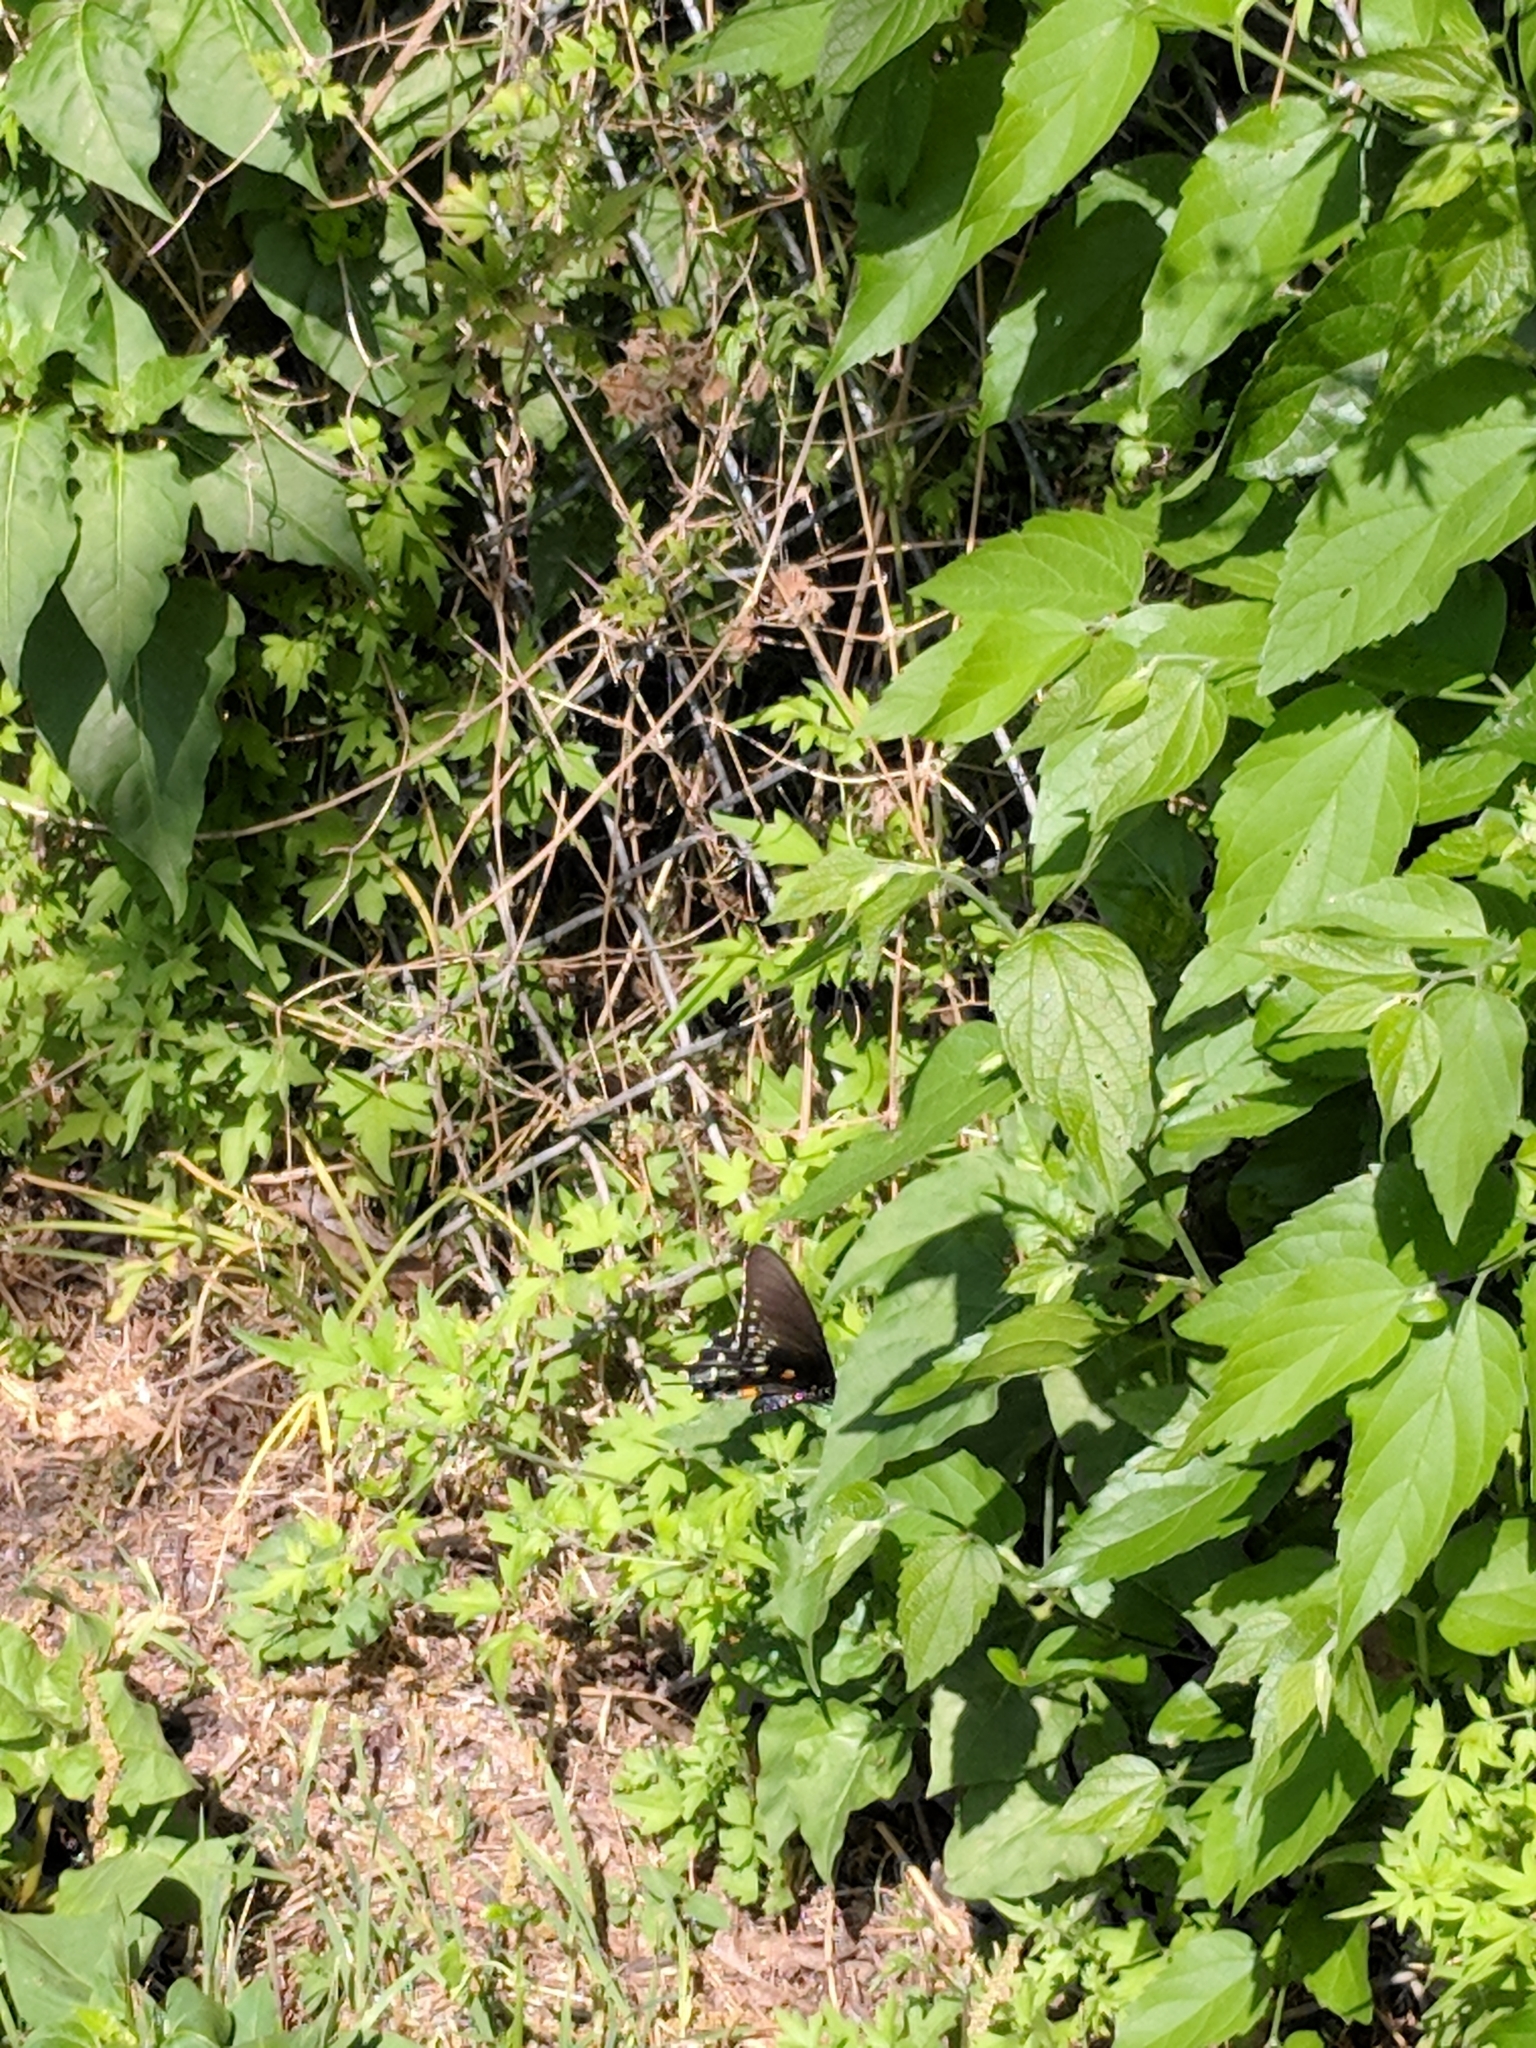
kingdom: Animalia
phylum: Arthropoda
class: Insecta
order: Lepidoptera
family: Papilionidae
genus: Battus
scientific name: Battus philenor
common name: Pipevine swallowtail
